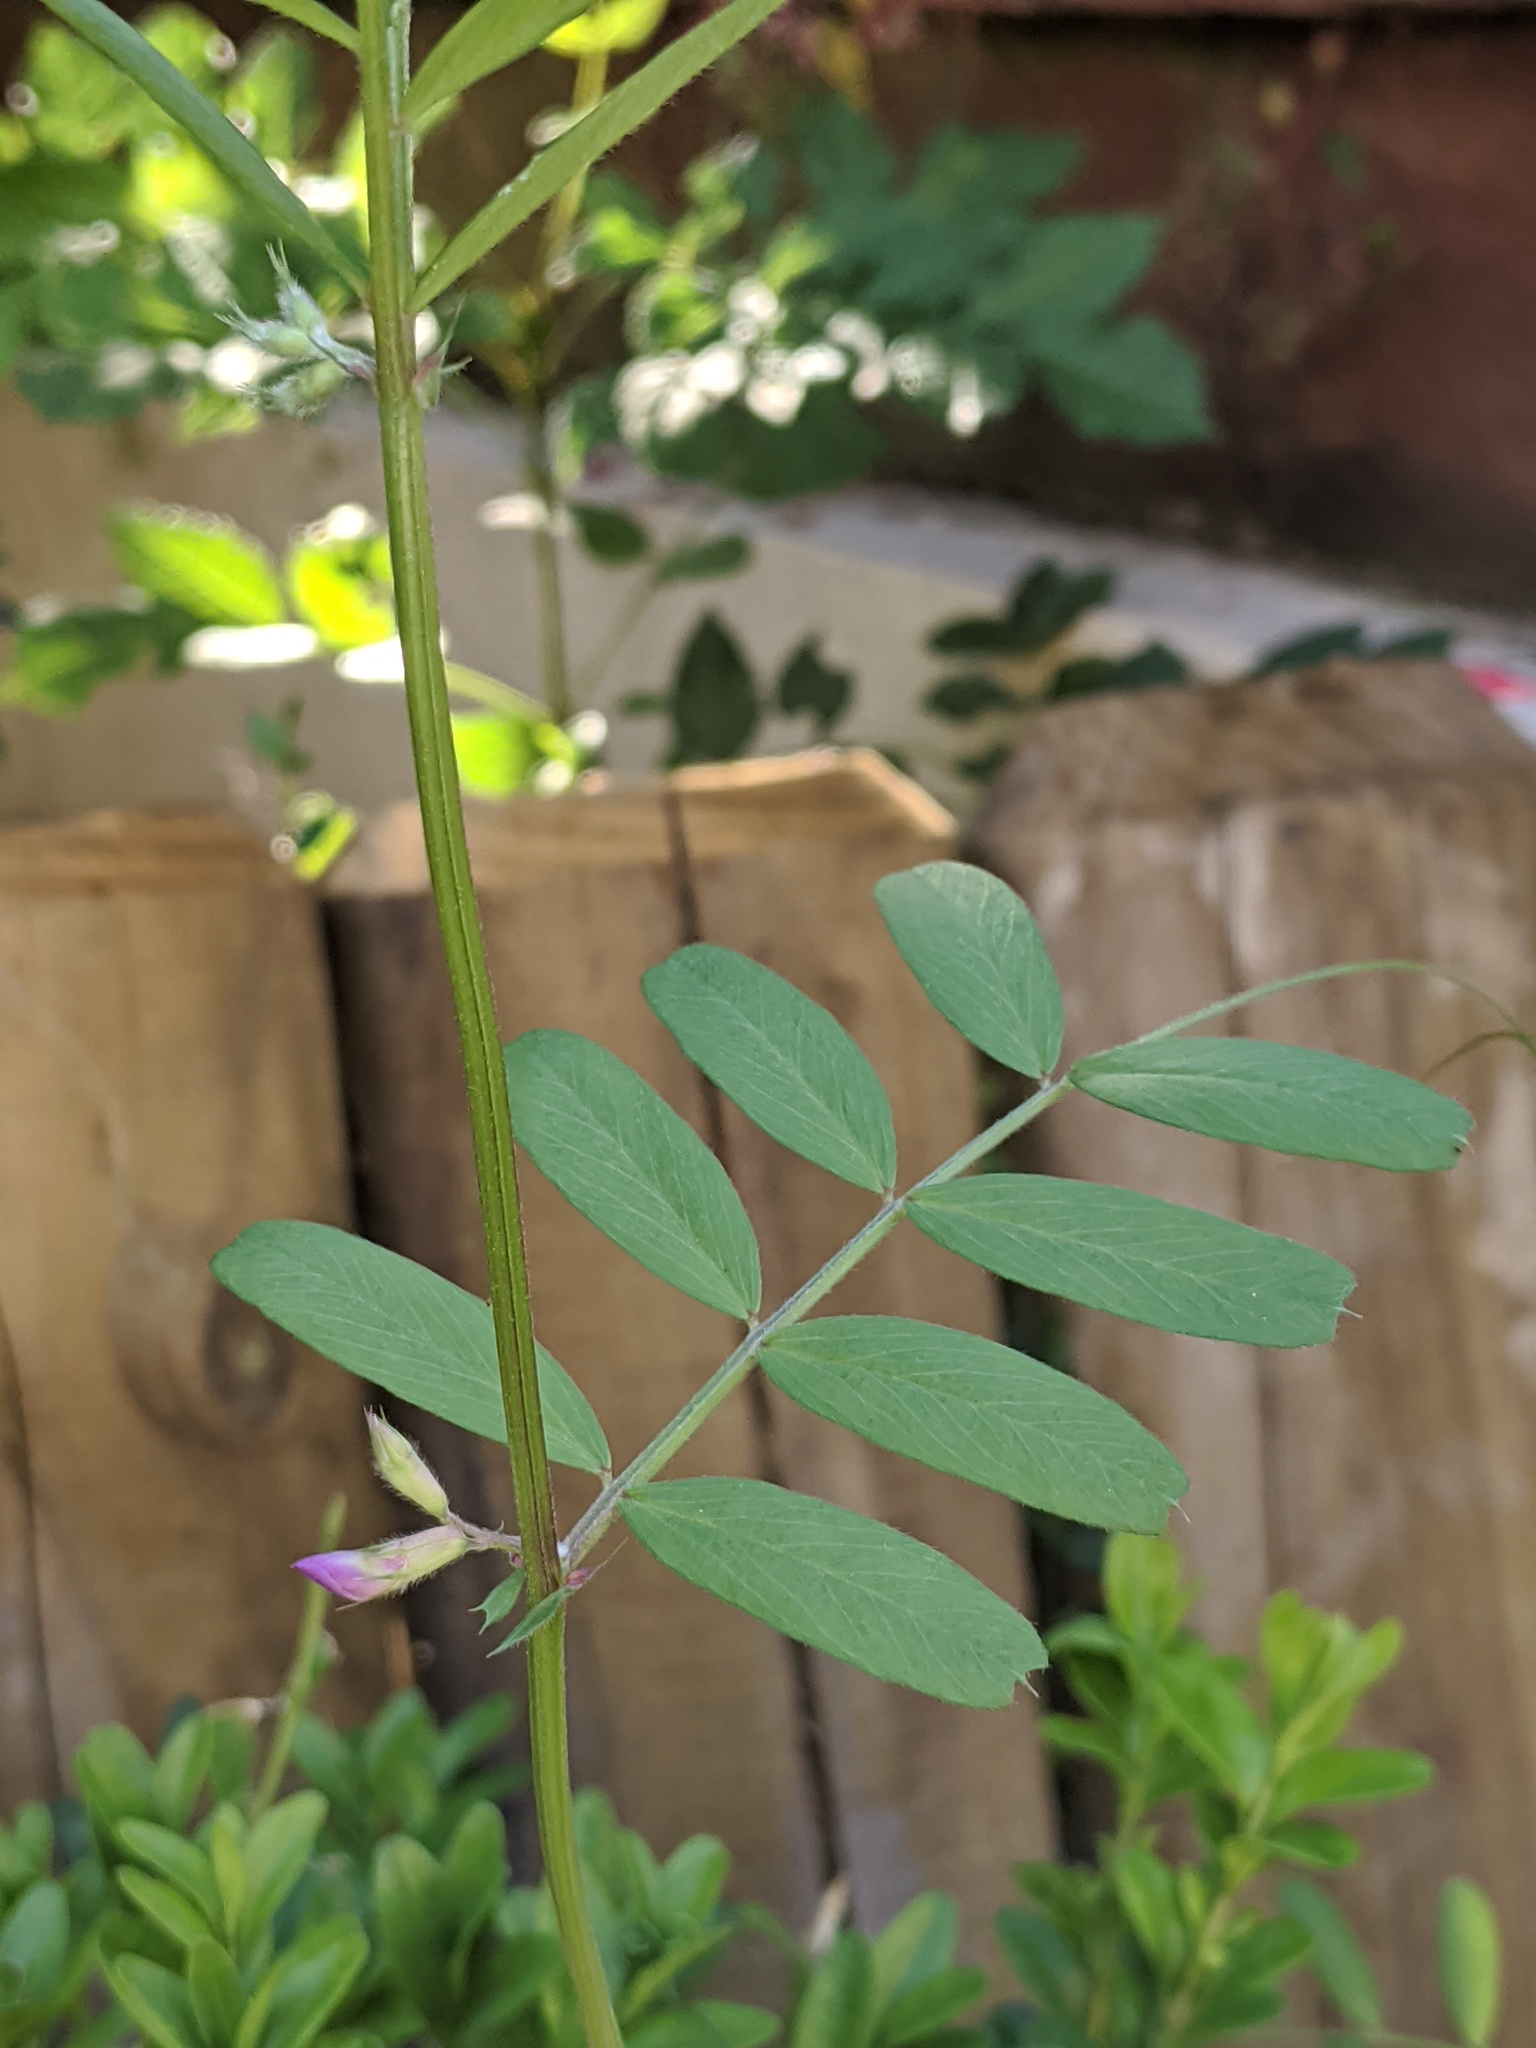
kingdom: Plantae
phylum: Tracheophyta
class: Magnoliopsida
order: Fabales
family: Fabaceae
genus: Vicia
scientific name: Vicia sativa
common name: Garden vetch
